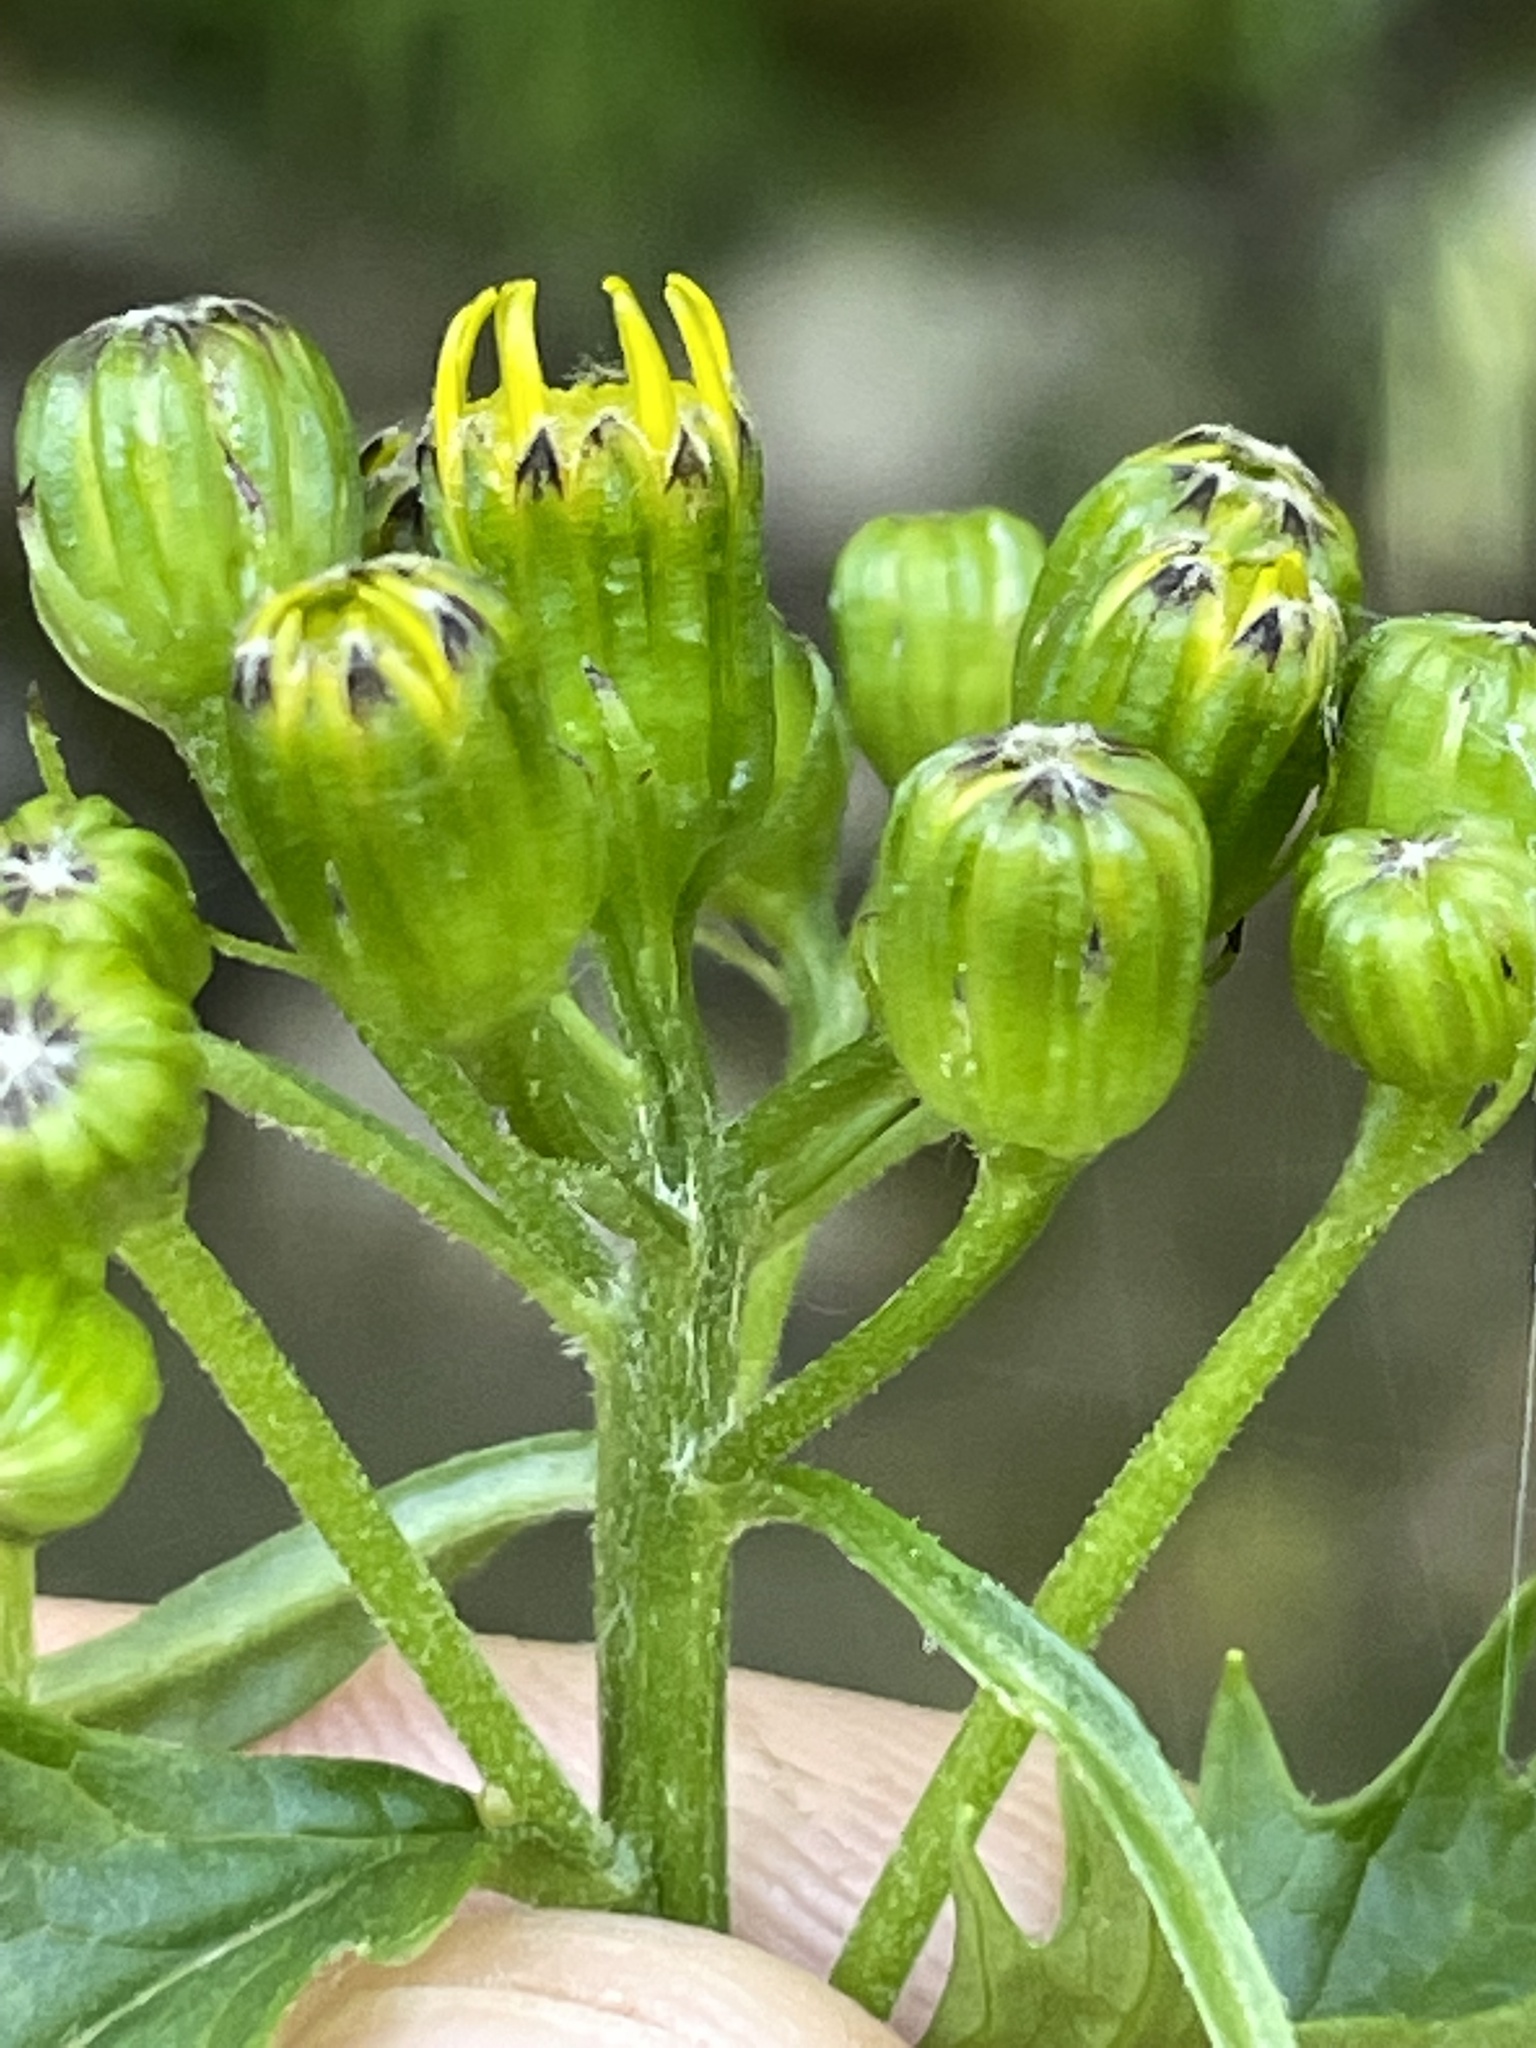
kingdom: Plantae
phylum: Tracheophyta
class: Magnoliopsida
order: Asterales
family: Asteraceae
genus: Senecio
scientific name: Senecio triangularis
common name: Arrowleaf butterweed
